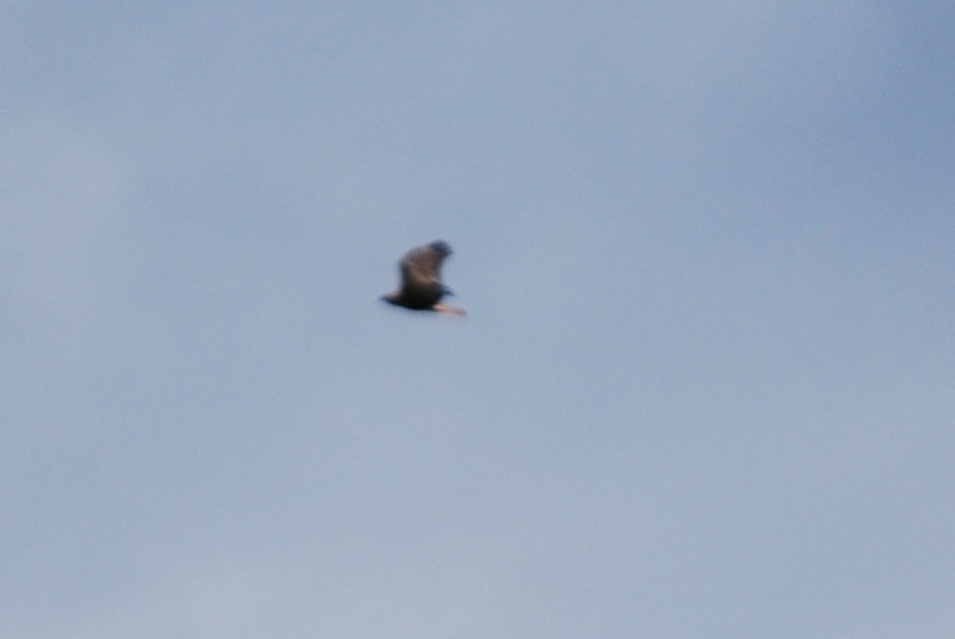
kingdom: Animalia
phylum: Chordata
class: Aves
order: Accipitriformes
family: Accipitridae
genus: Buteo
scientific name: Buteo jamaicensis
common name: Red-tailed hawk
